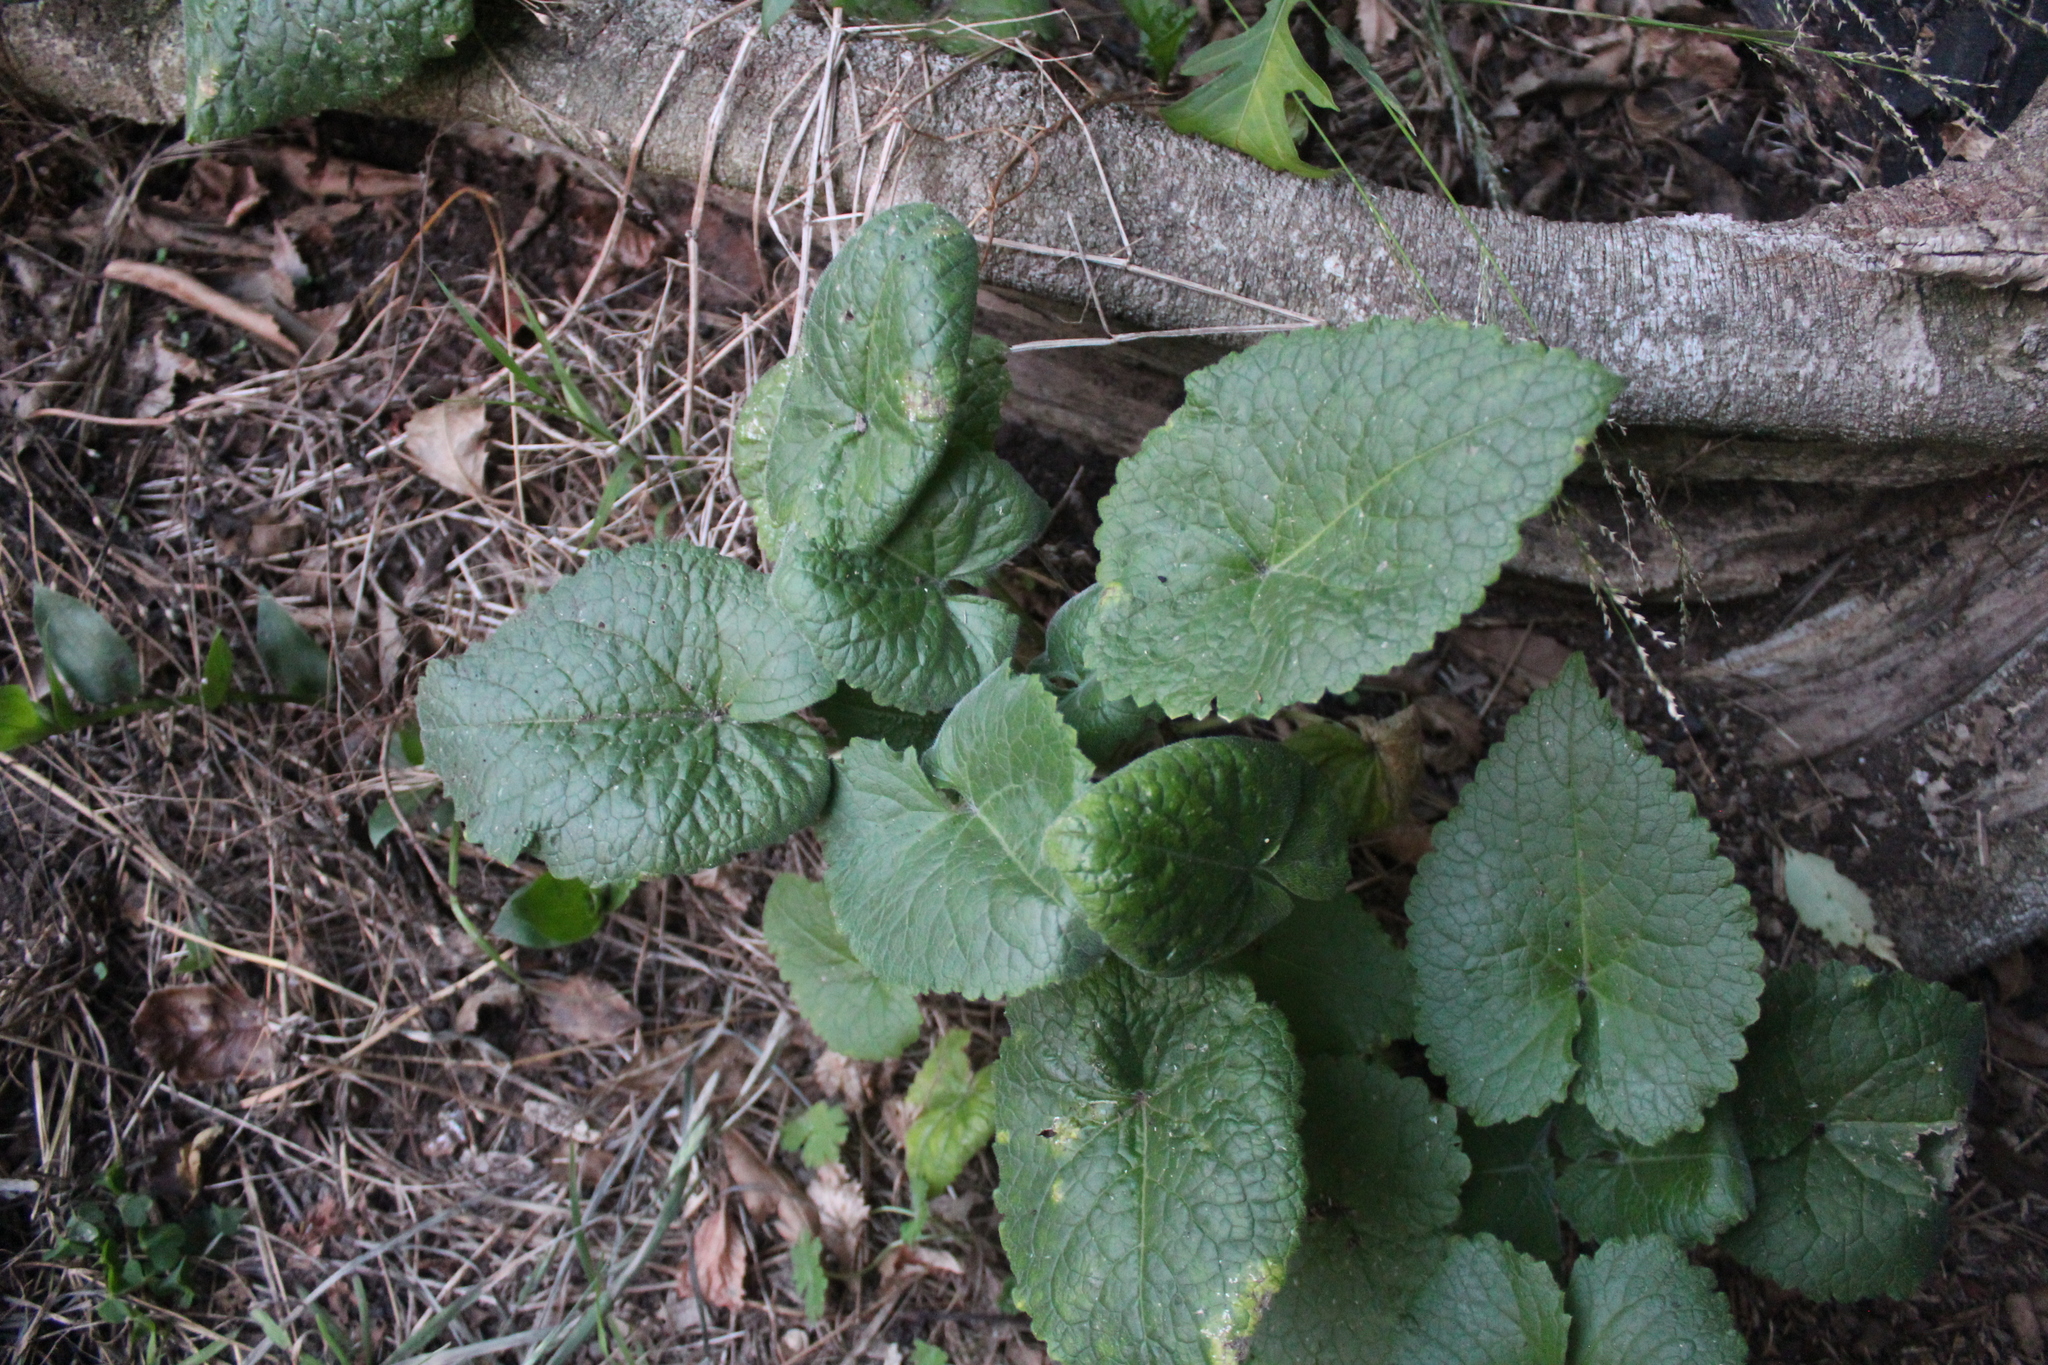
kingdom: Plantae
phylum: Tracheophyta
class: Magnoliopsida
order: Brassicales
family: Brassicaceae
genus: Lunaria
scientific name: Lunaria annua
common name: Honesty
